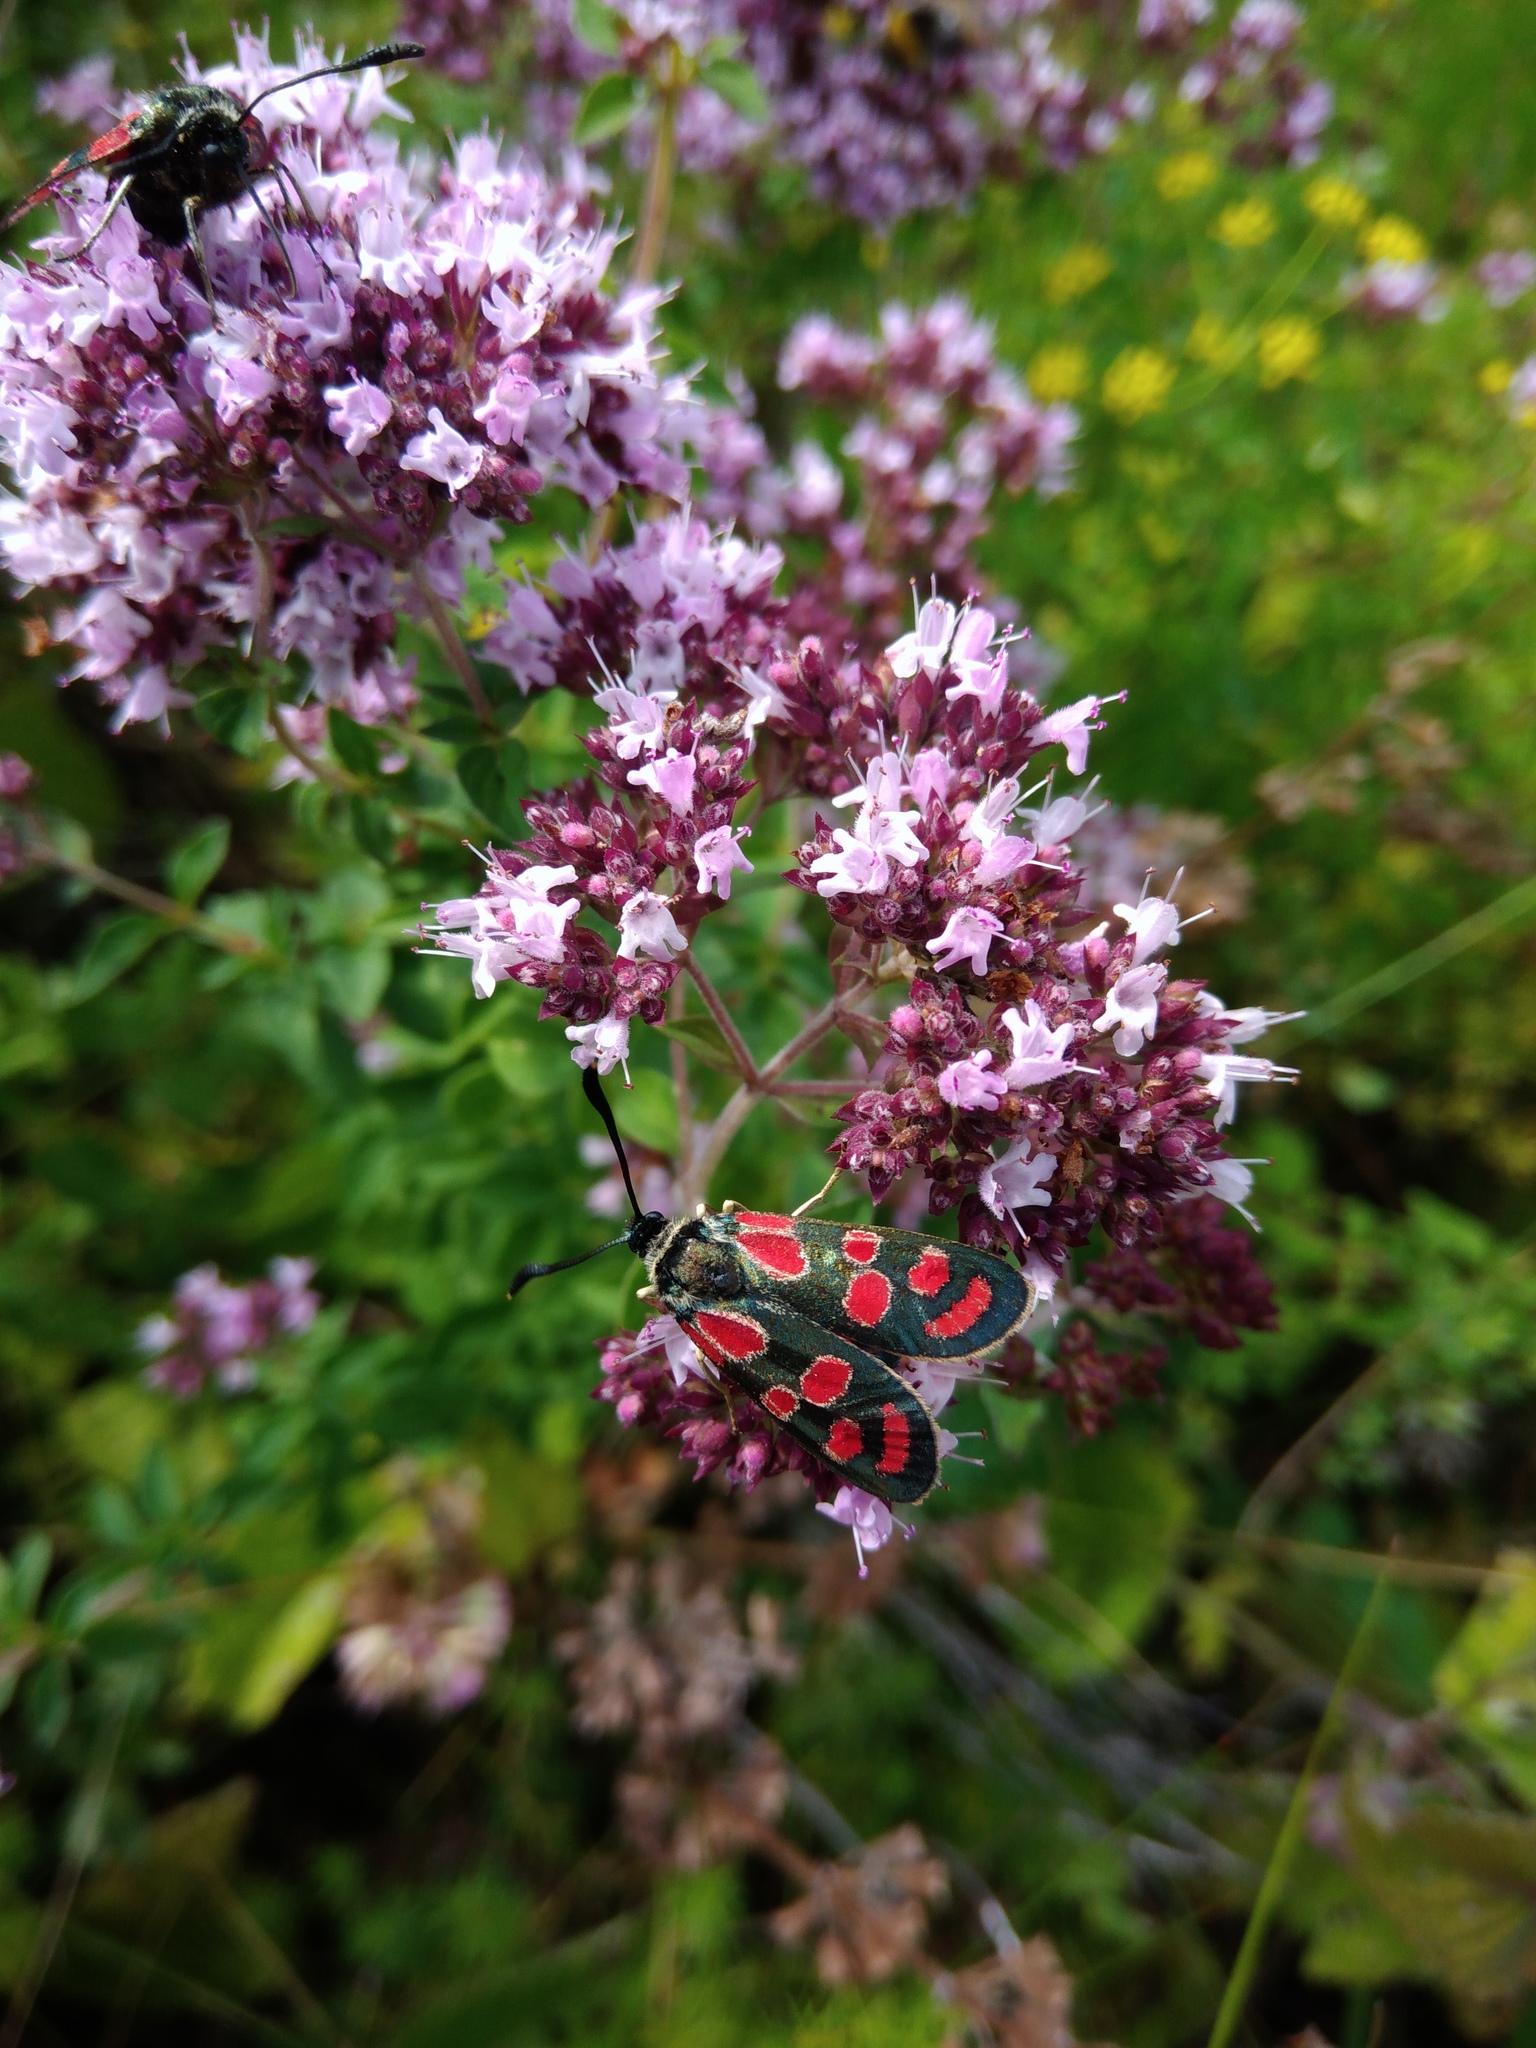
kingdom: Animalia
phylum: Arthropoda
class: Insecta
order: Lepidoptera
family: Zygaenidae
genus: Zygaena
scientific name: Zygaena carniolica
